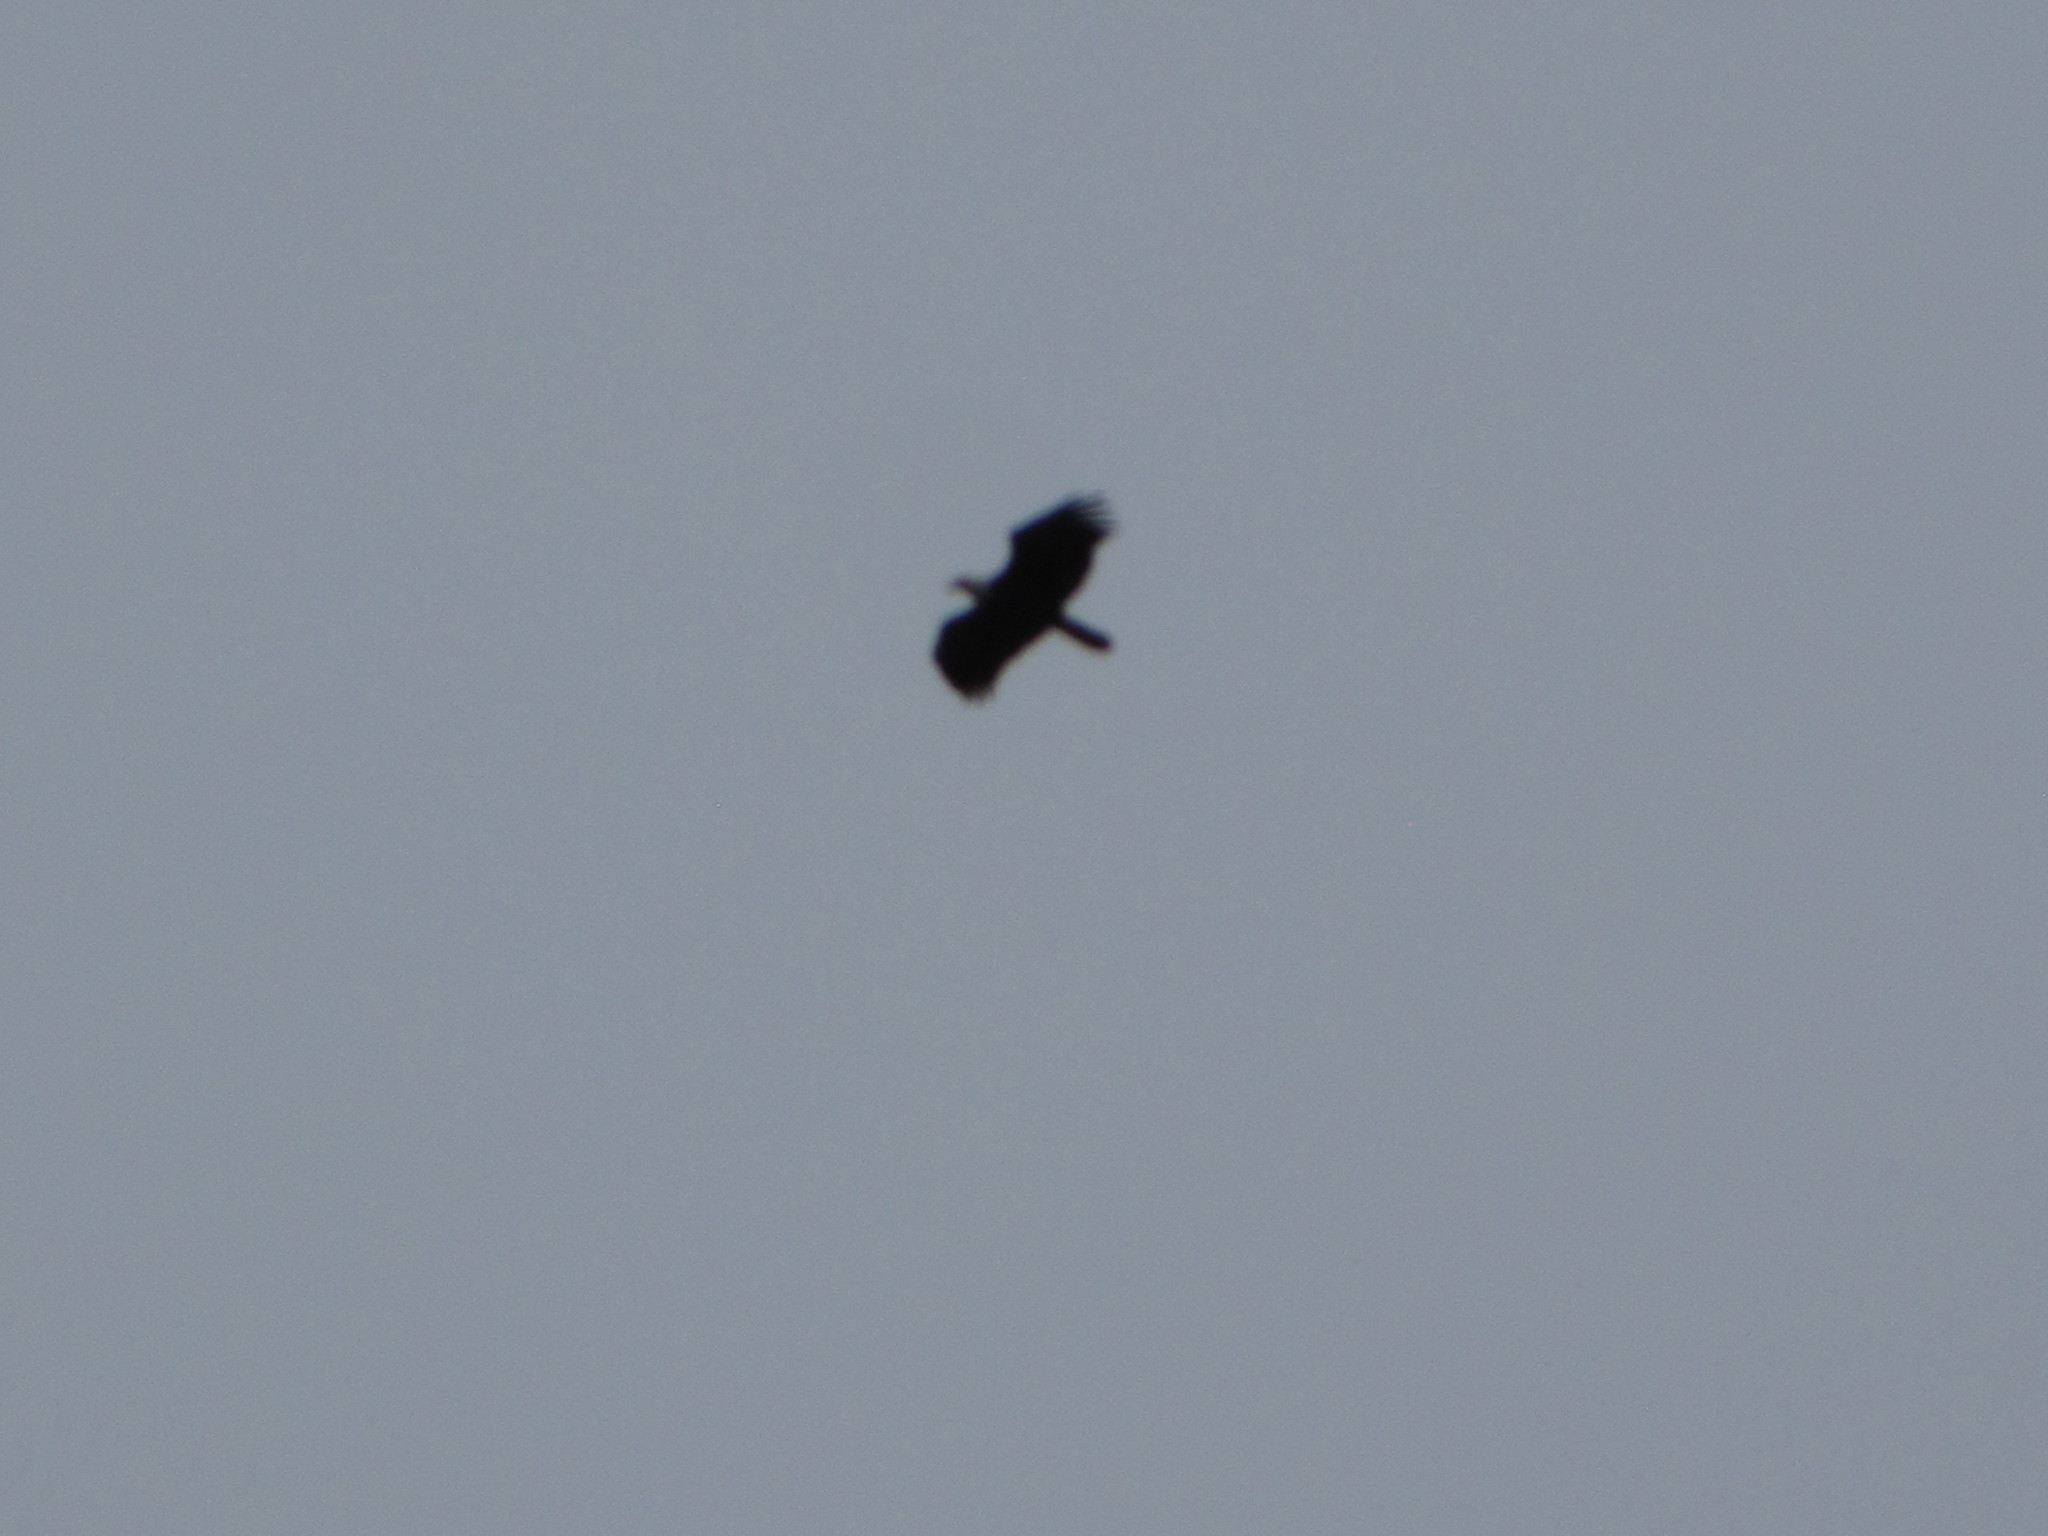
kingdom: Animalia
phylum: Chordata
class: Aves
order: Accipitriformes
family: Accipitridae
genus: Haliaeetus
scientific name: Haliaeetus leucocephalus
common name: Bald eagle
